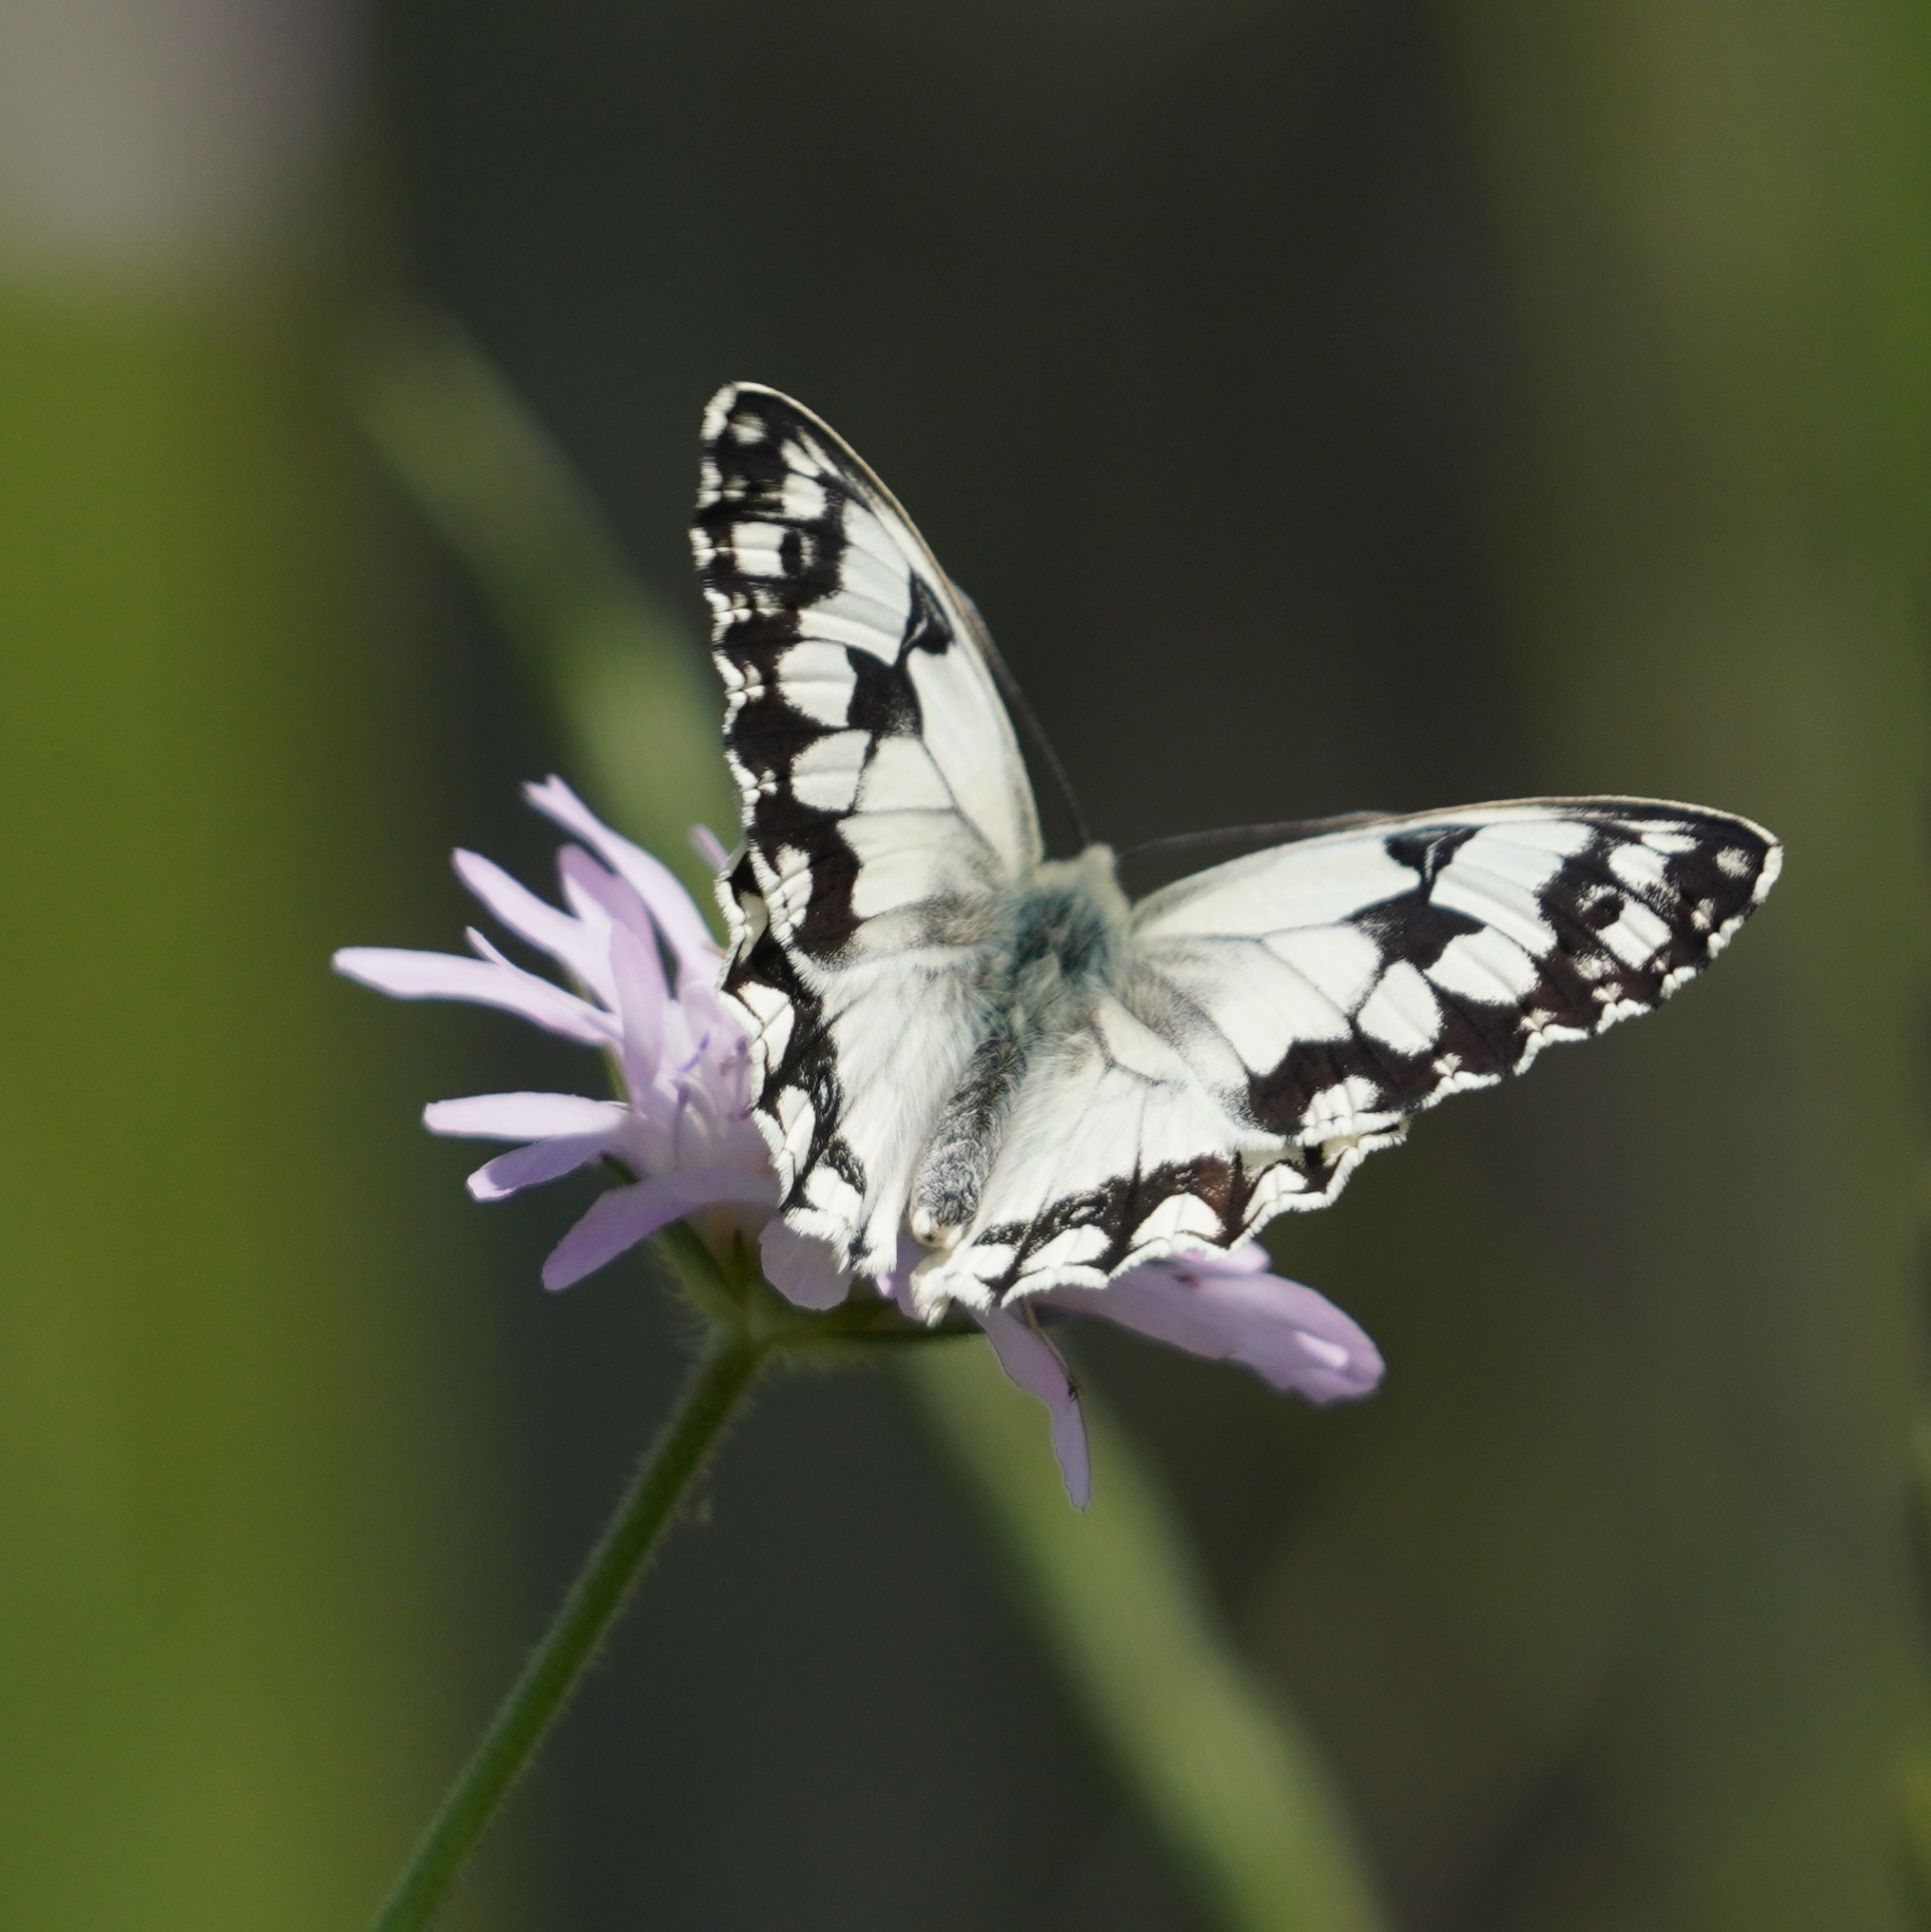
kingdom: Animalia
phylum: Arthropoda
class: Insecta
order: Lepidoptera
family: Nymphalidae
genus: Melanargia
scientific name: Melanargia lachesis
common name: Iberian marbled white
